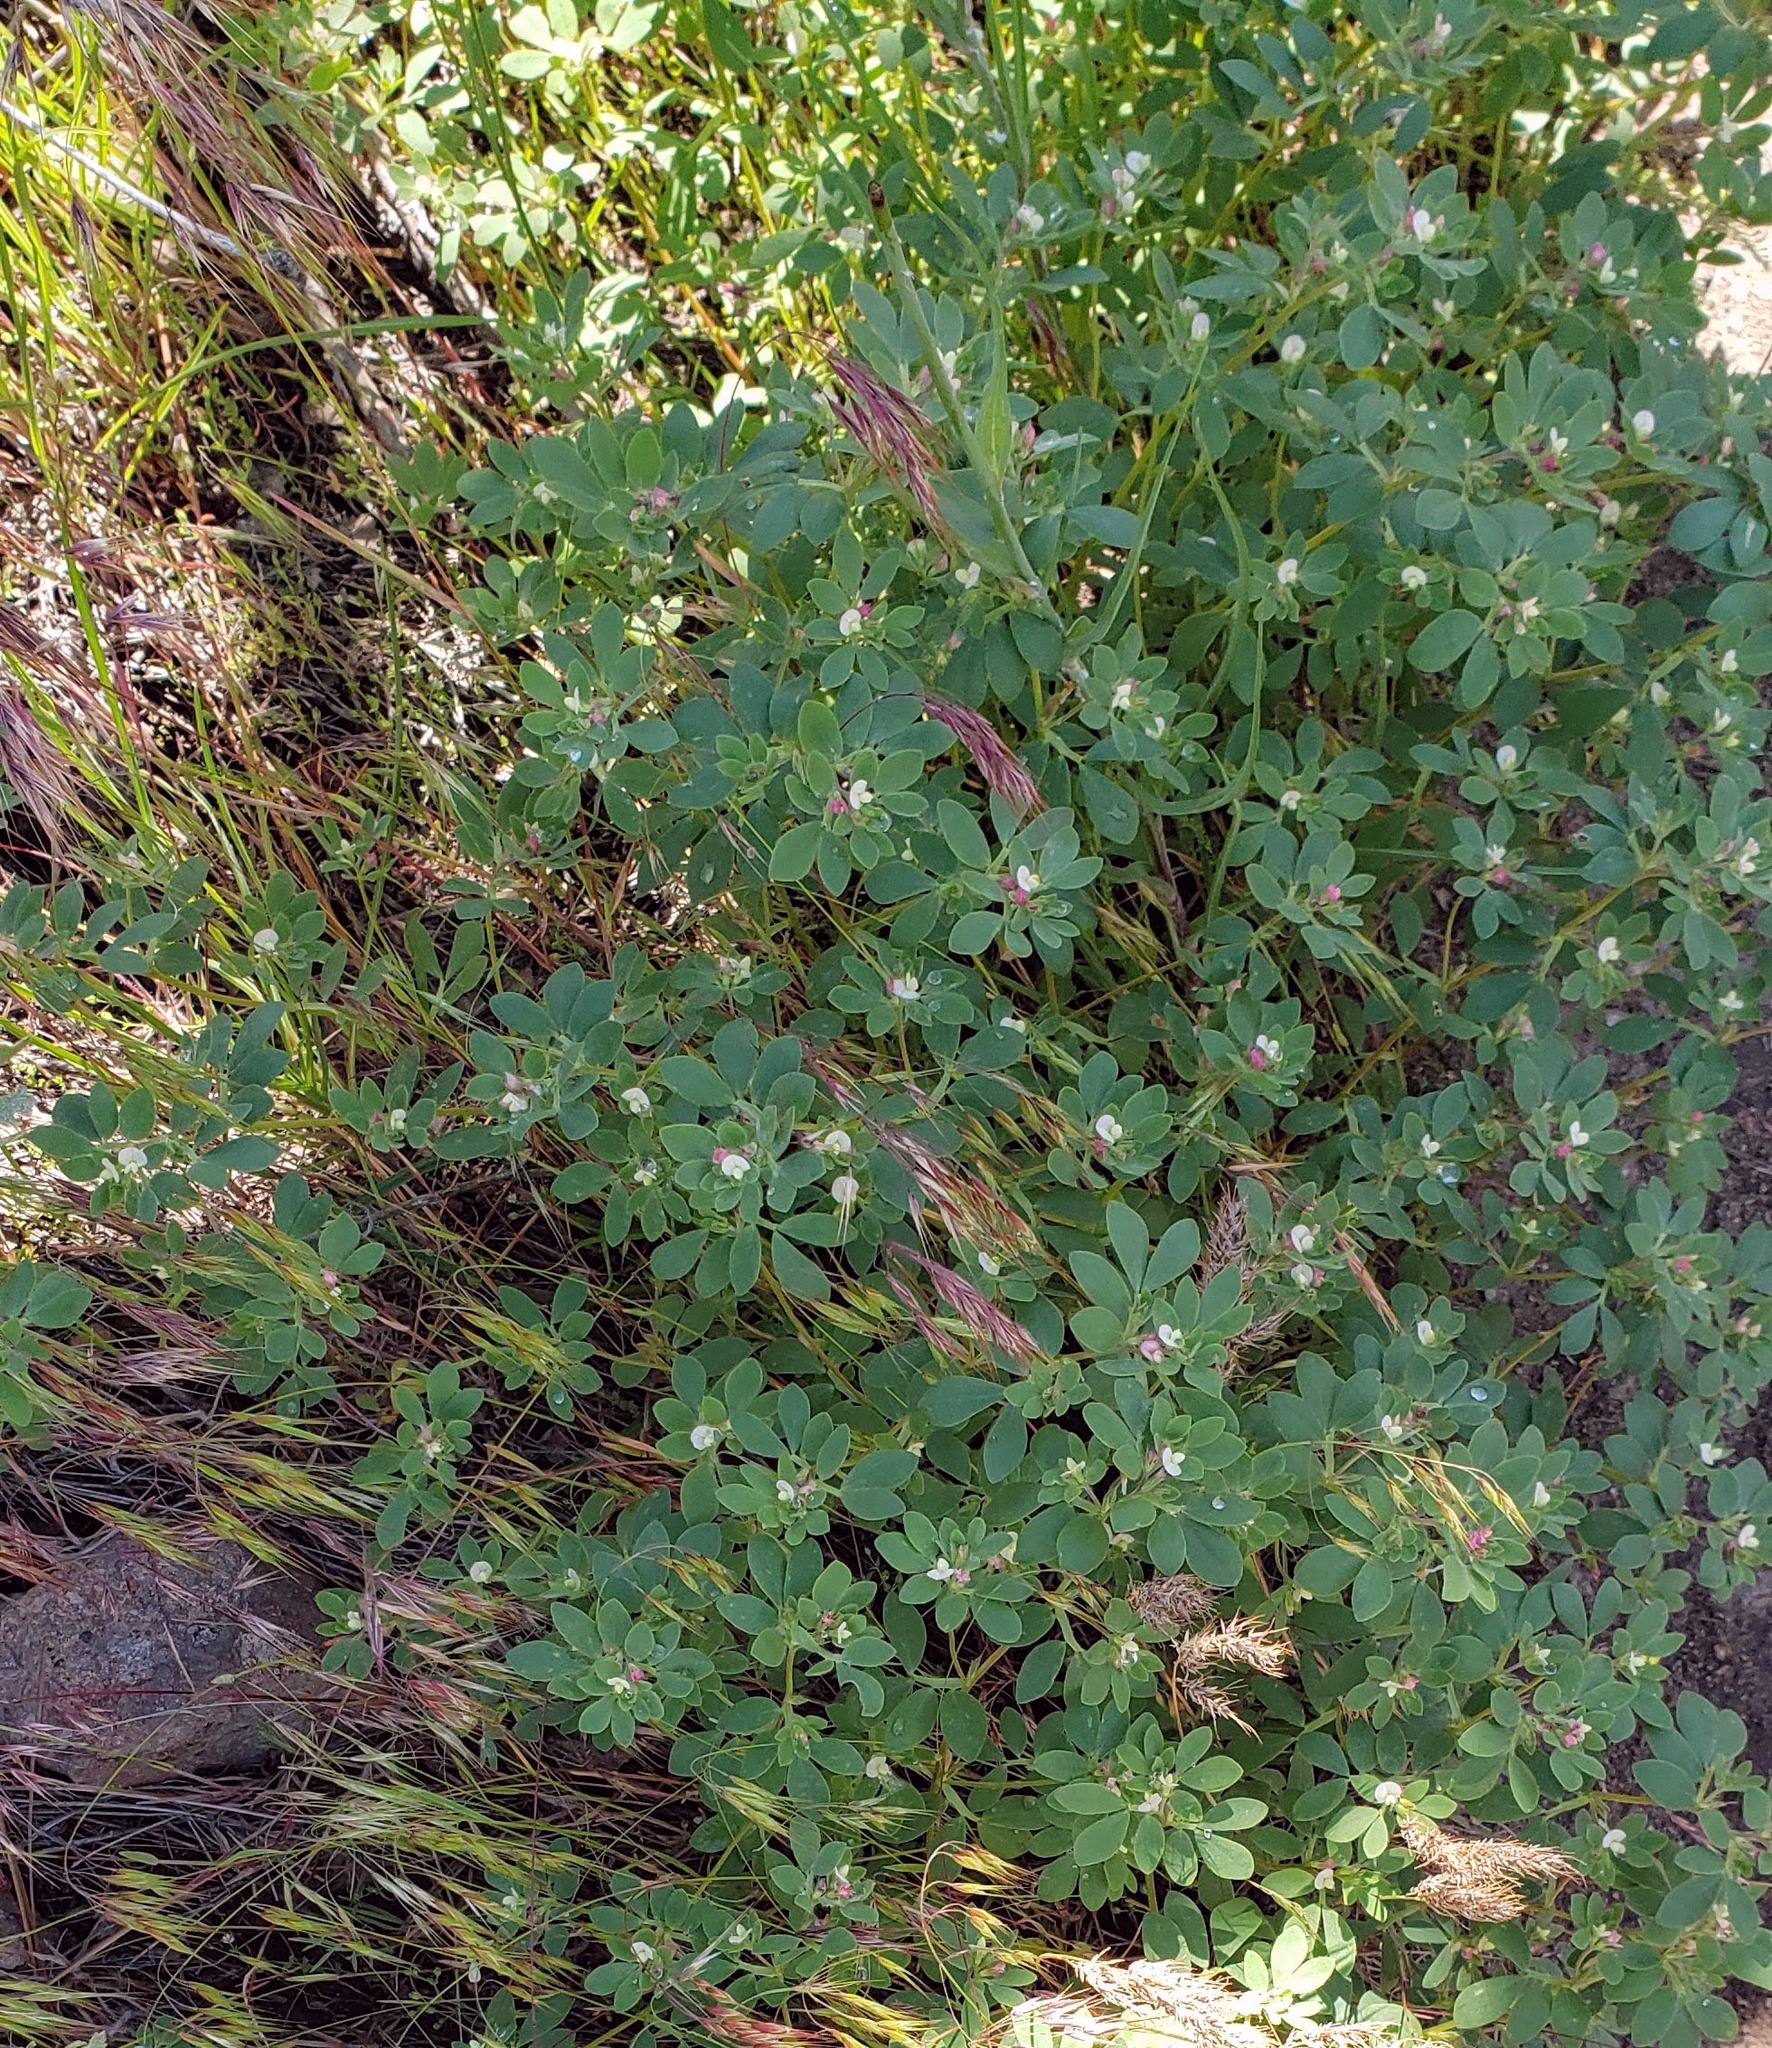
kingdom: Plantae
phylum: Tracheophyta
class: Magnoliopsida
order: Fabales
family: Fabaceae
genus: Acmispon
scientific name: Acmispon denticulatus
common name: Meadow bird's-foot trefoil
